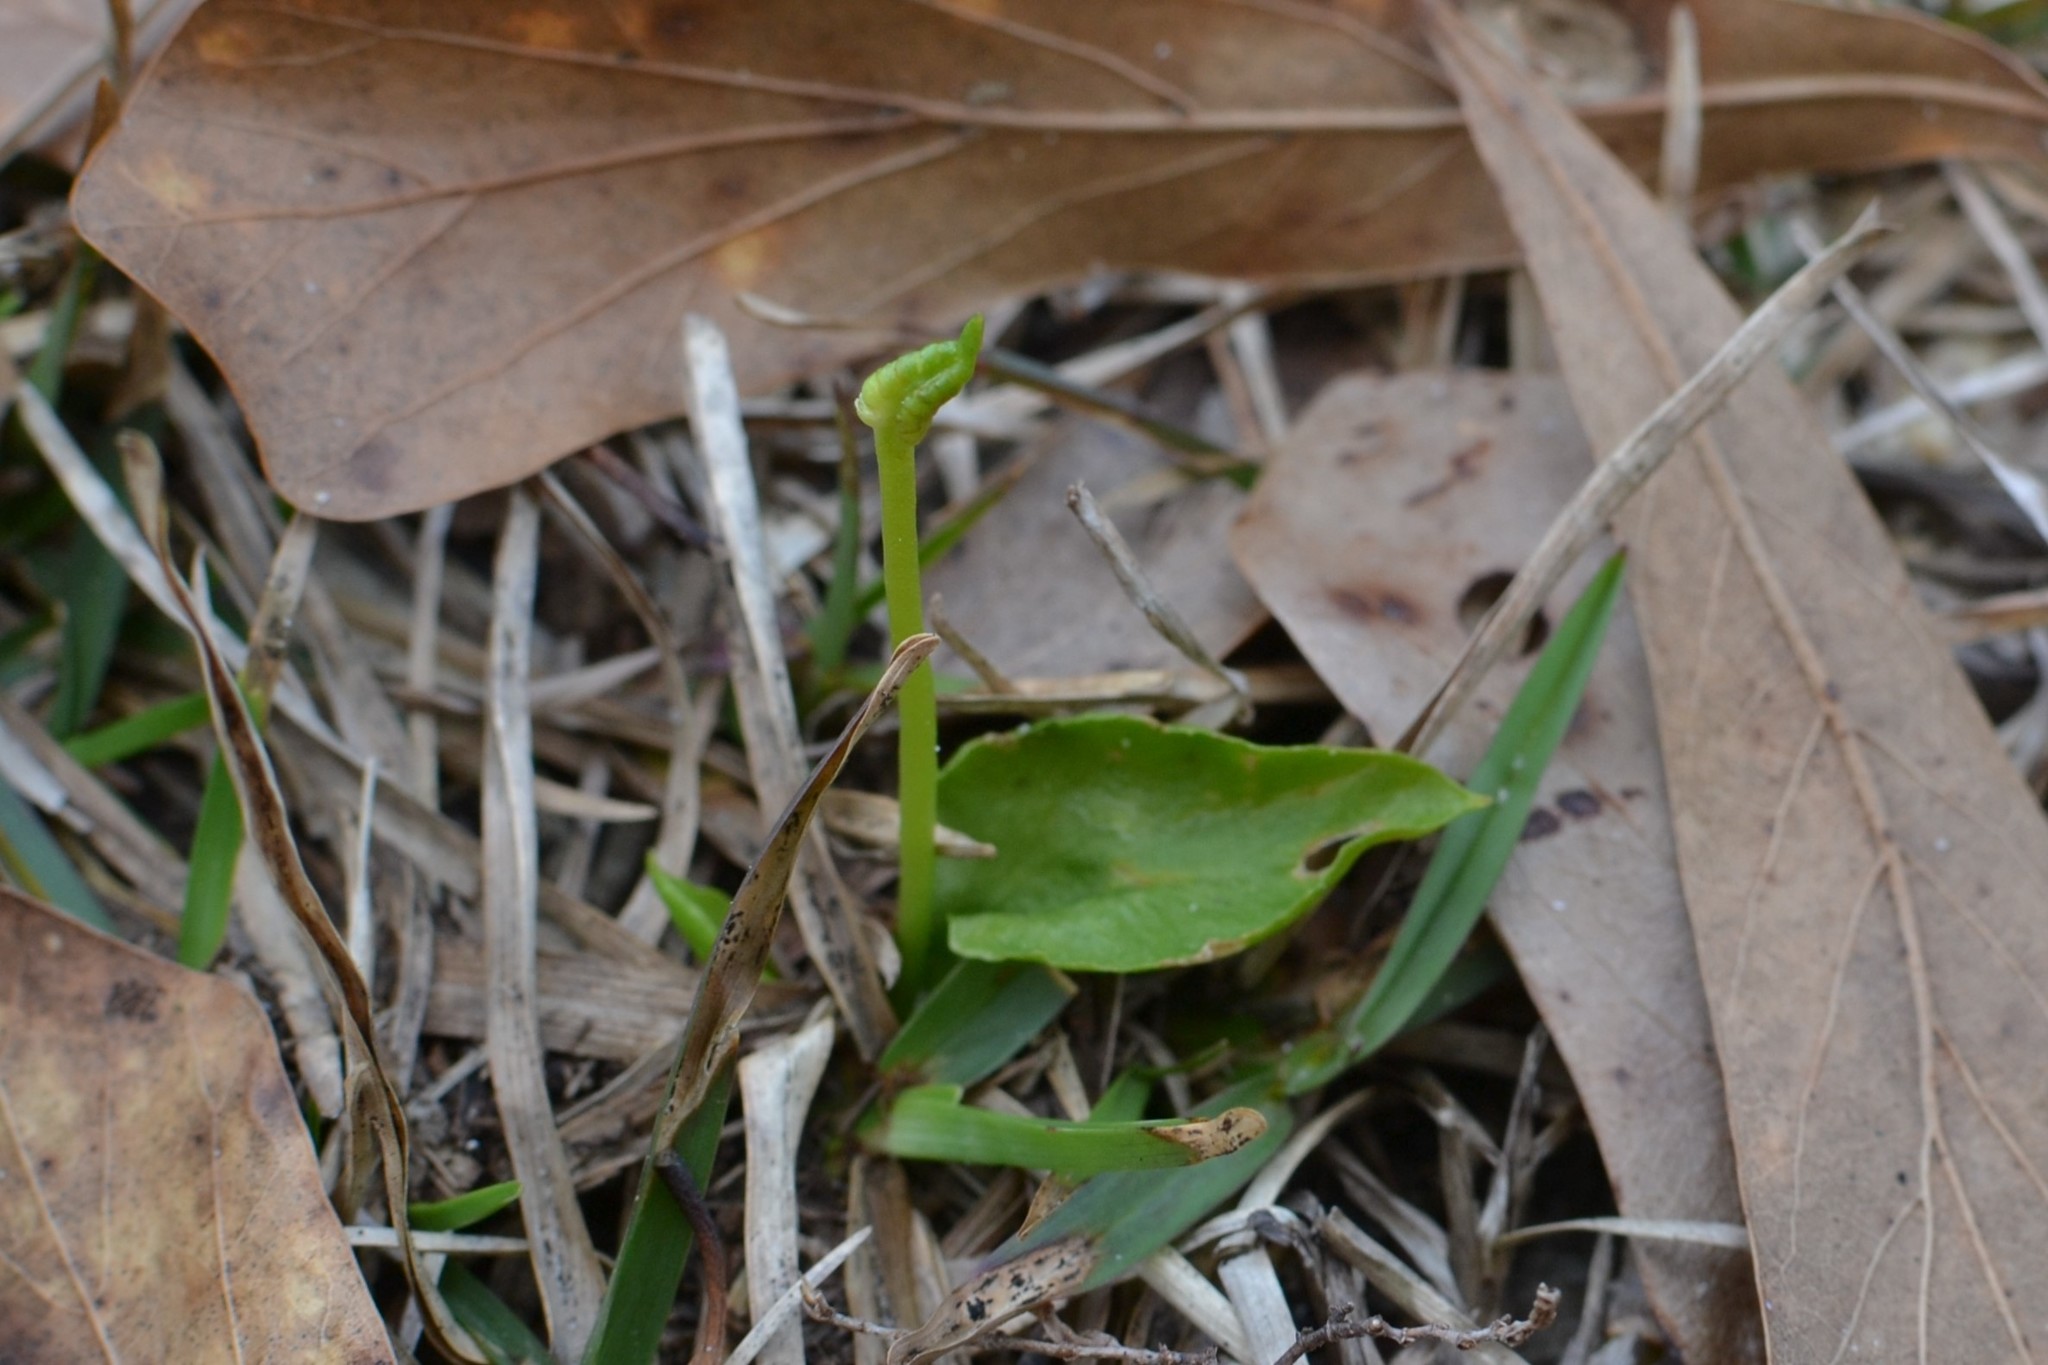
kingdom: Plantae
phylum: Tracheophyta
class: Polypodiopsida
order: Ophioglossales
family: Ophioglossaceae
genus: Ophioglossum
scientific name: Ophioglossum crotalophoroides
